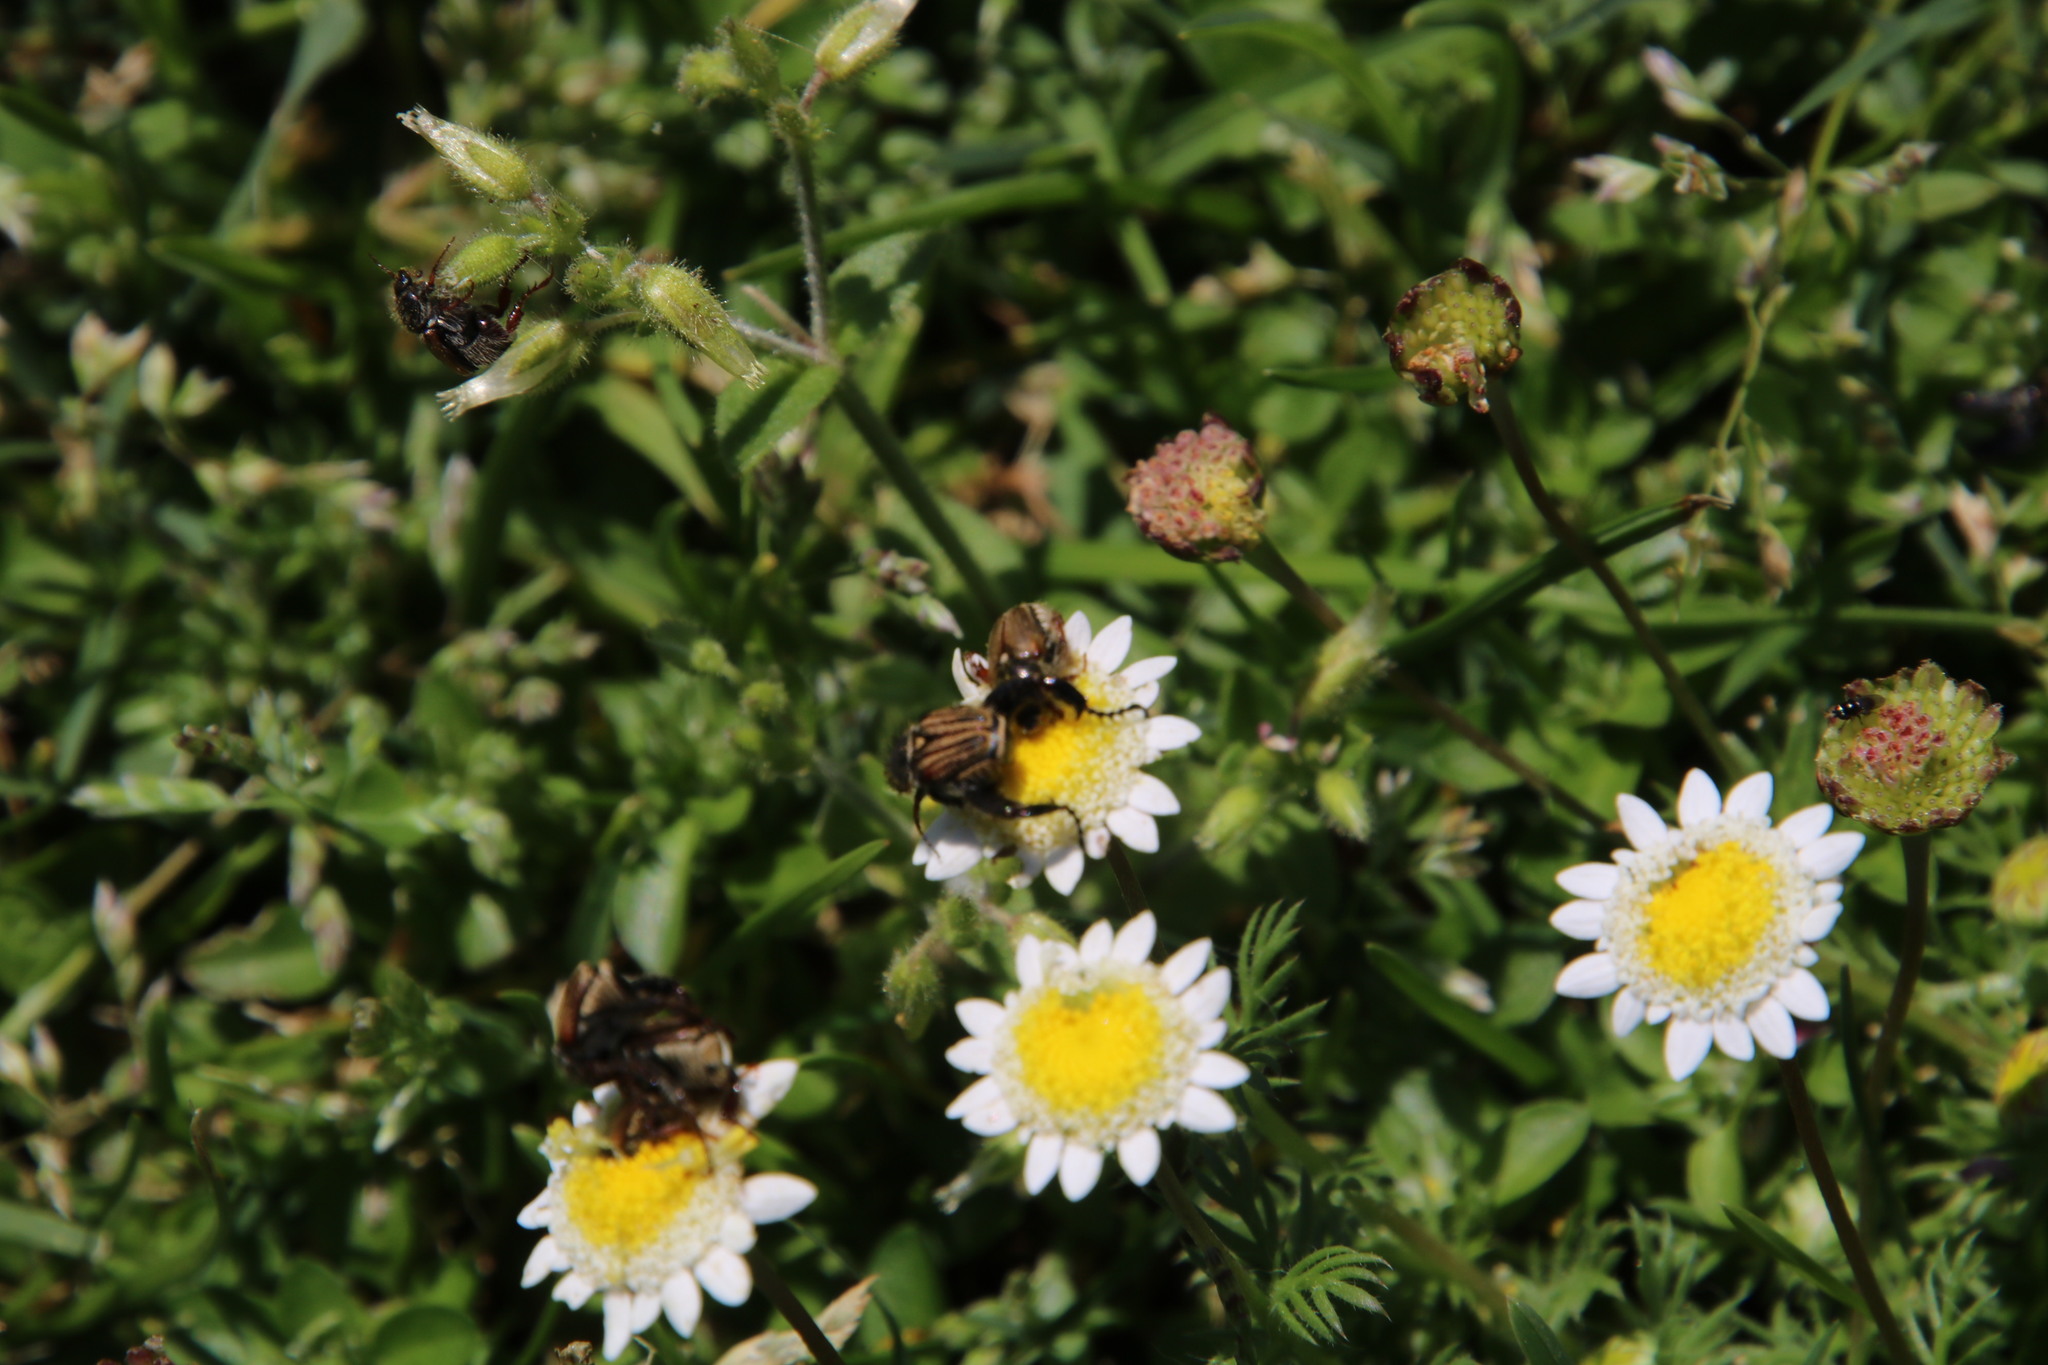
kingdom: Plantae
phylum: Tracheophyta
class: Magnoliopsida
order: Asterales
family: Asteraceae
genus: Cotula
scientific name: Cotula turbinata
